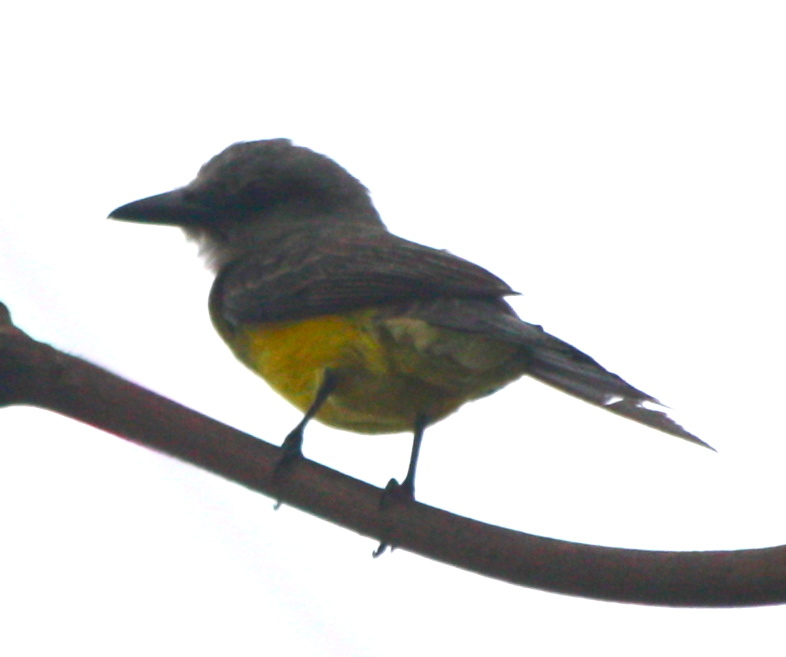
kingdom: Animalia
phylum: Chordata
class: Aves
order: Passeriformes
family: Tyrannidae
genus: Tyrannus
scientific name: Tyrannus melancholicus
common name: Tropical kingbird
